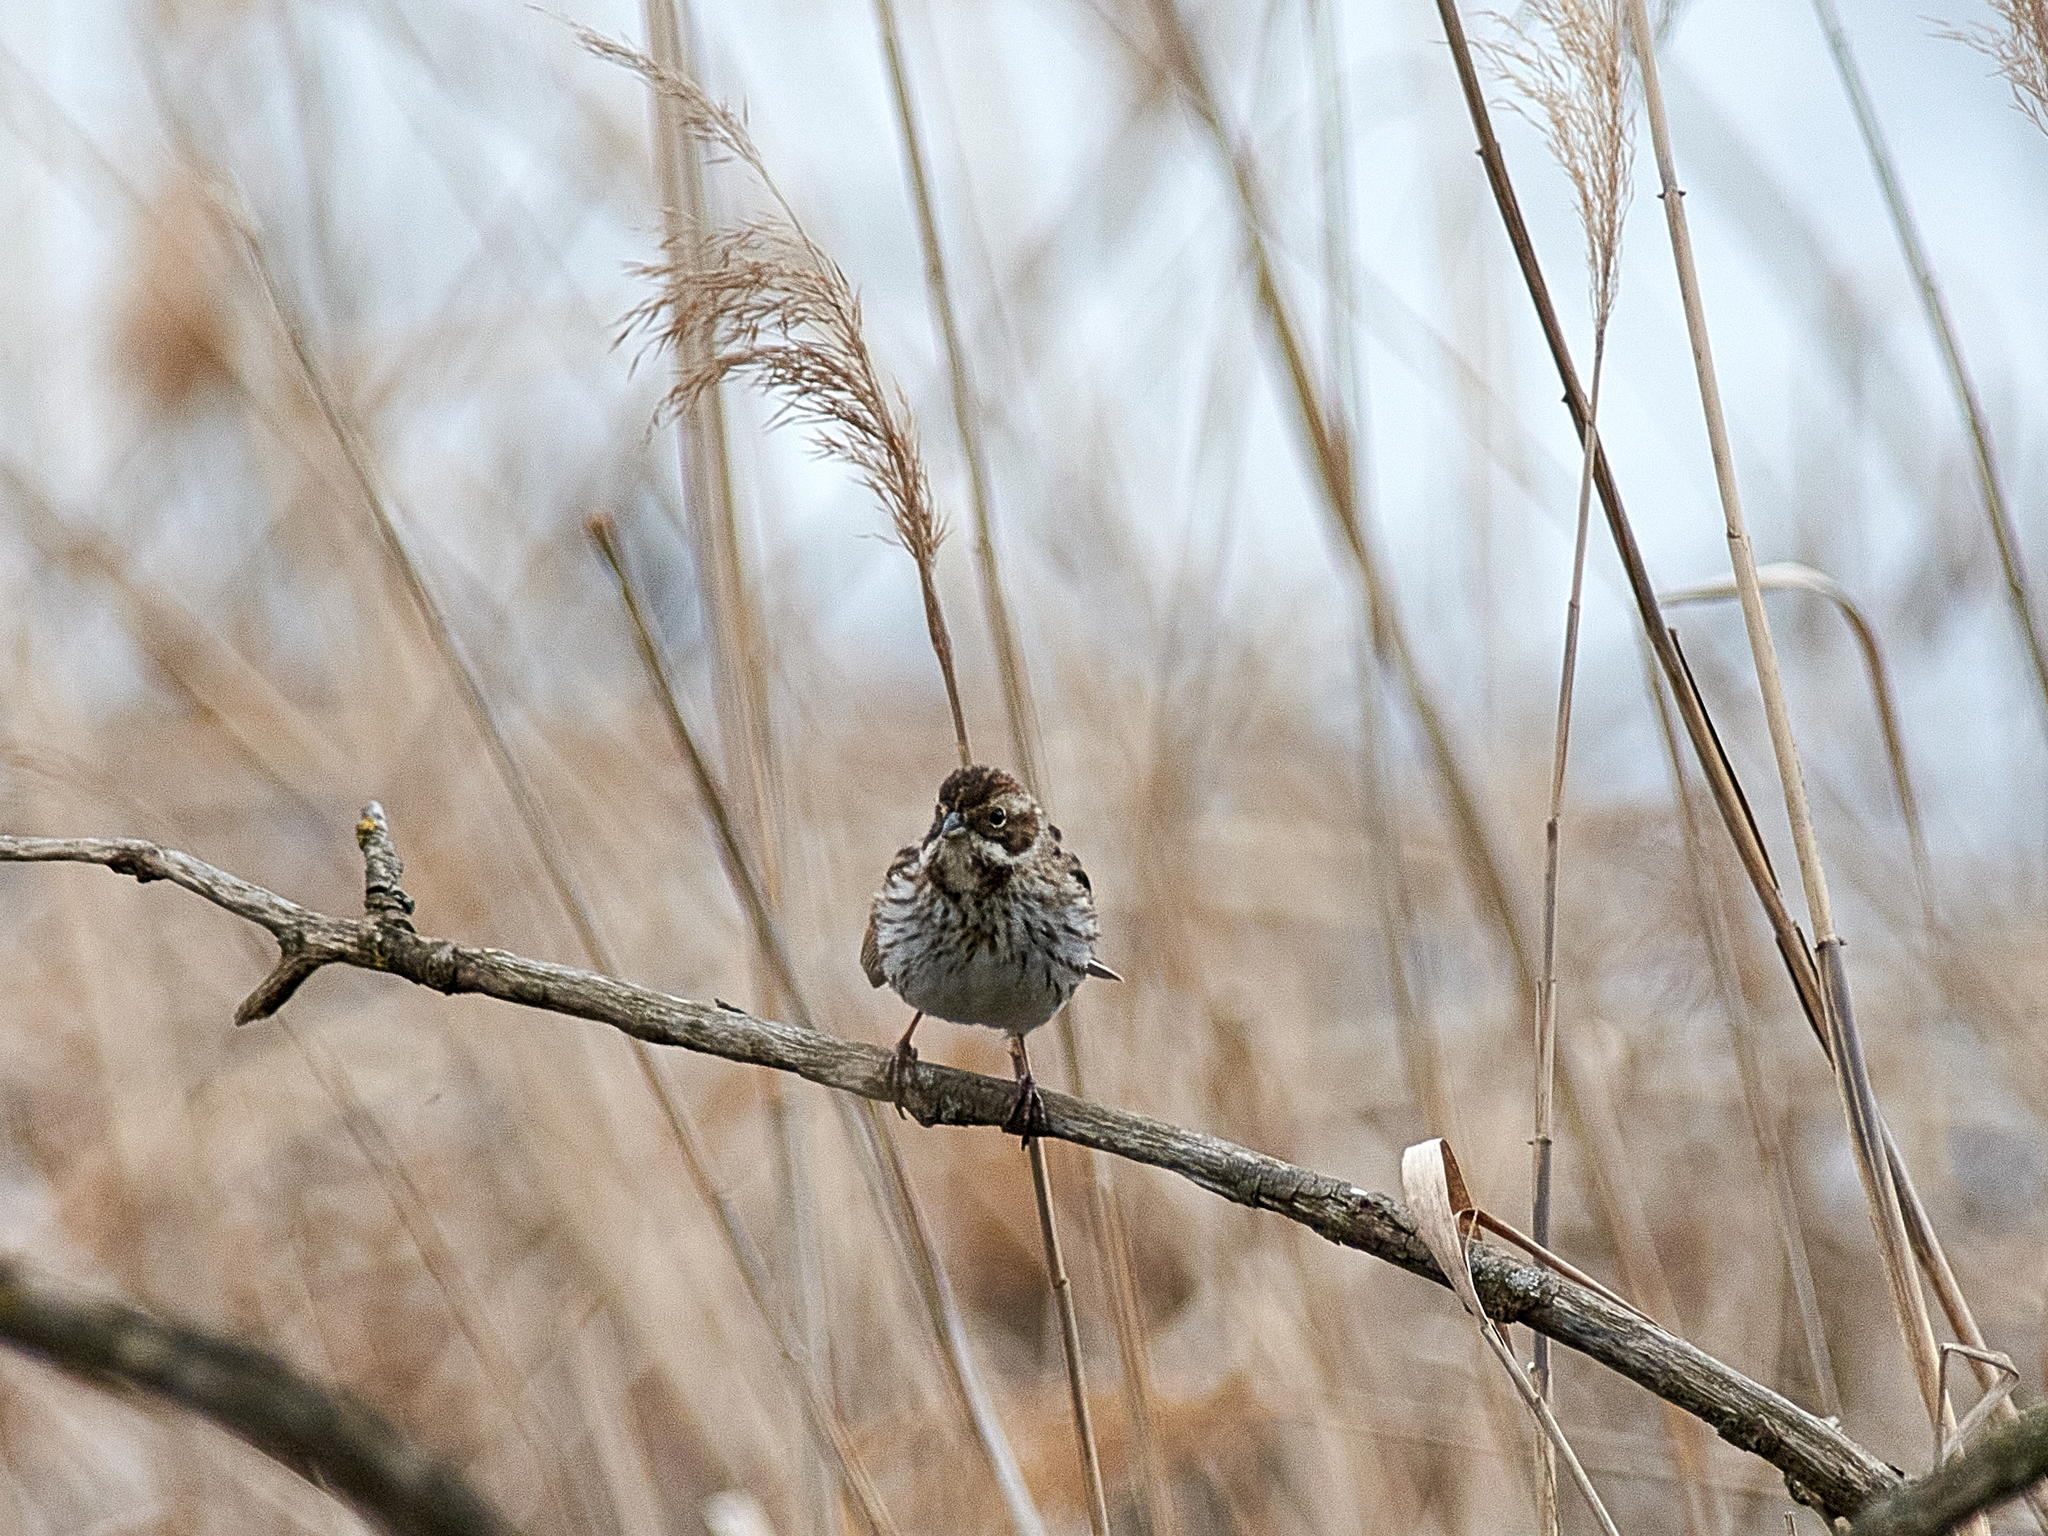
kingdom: Animalia
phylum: Chordata
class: Aves
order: Passeriformes
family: Emberizidae
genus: Emberiza
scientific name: Emberiza schoeniclus
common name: Reed bunting
